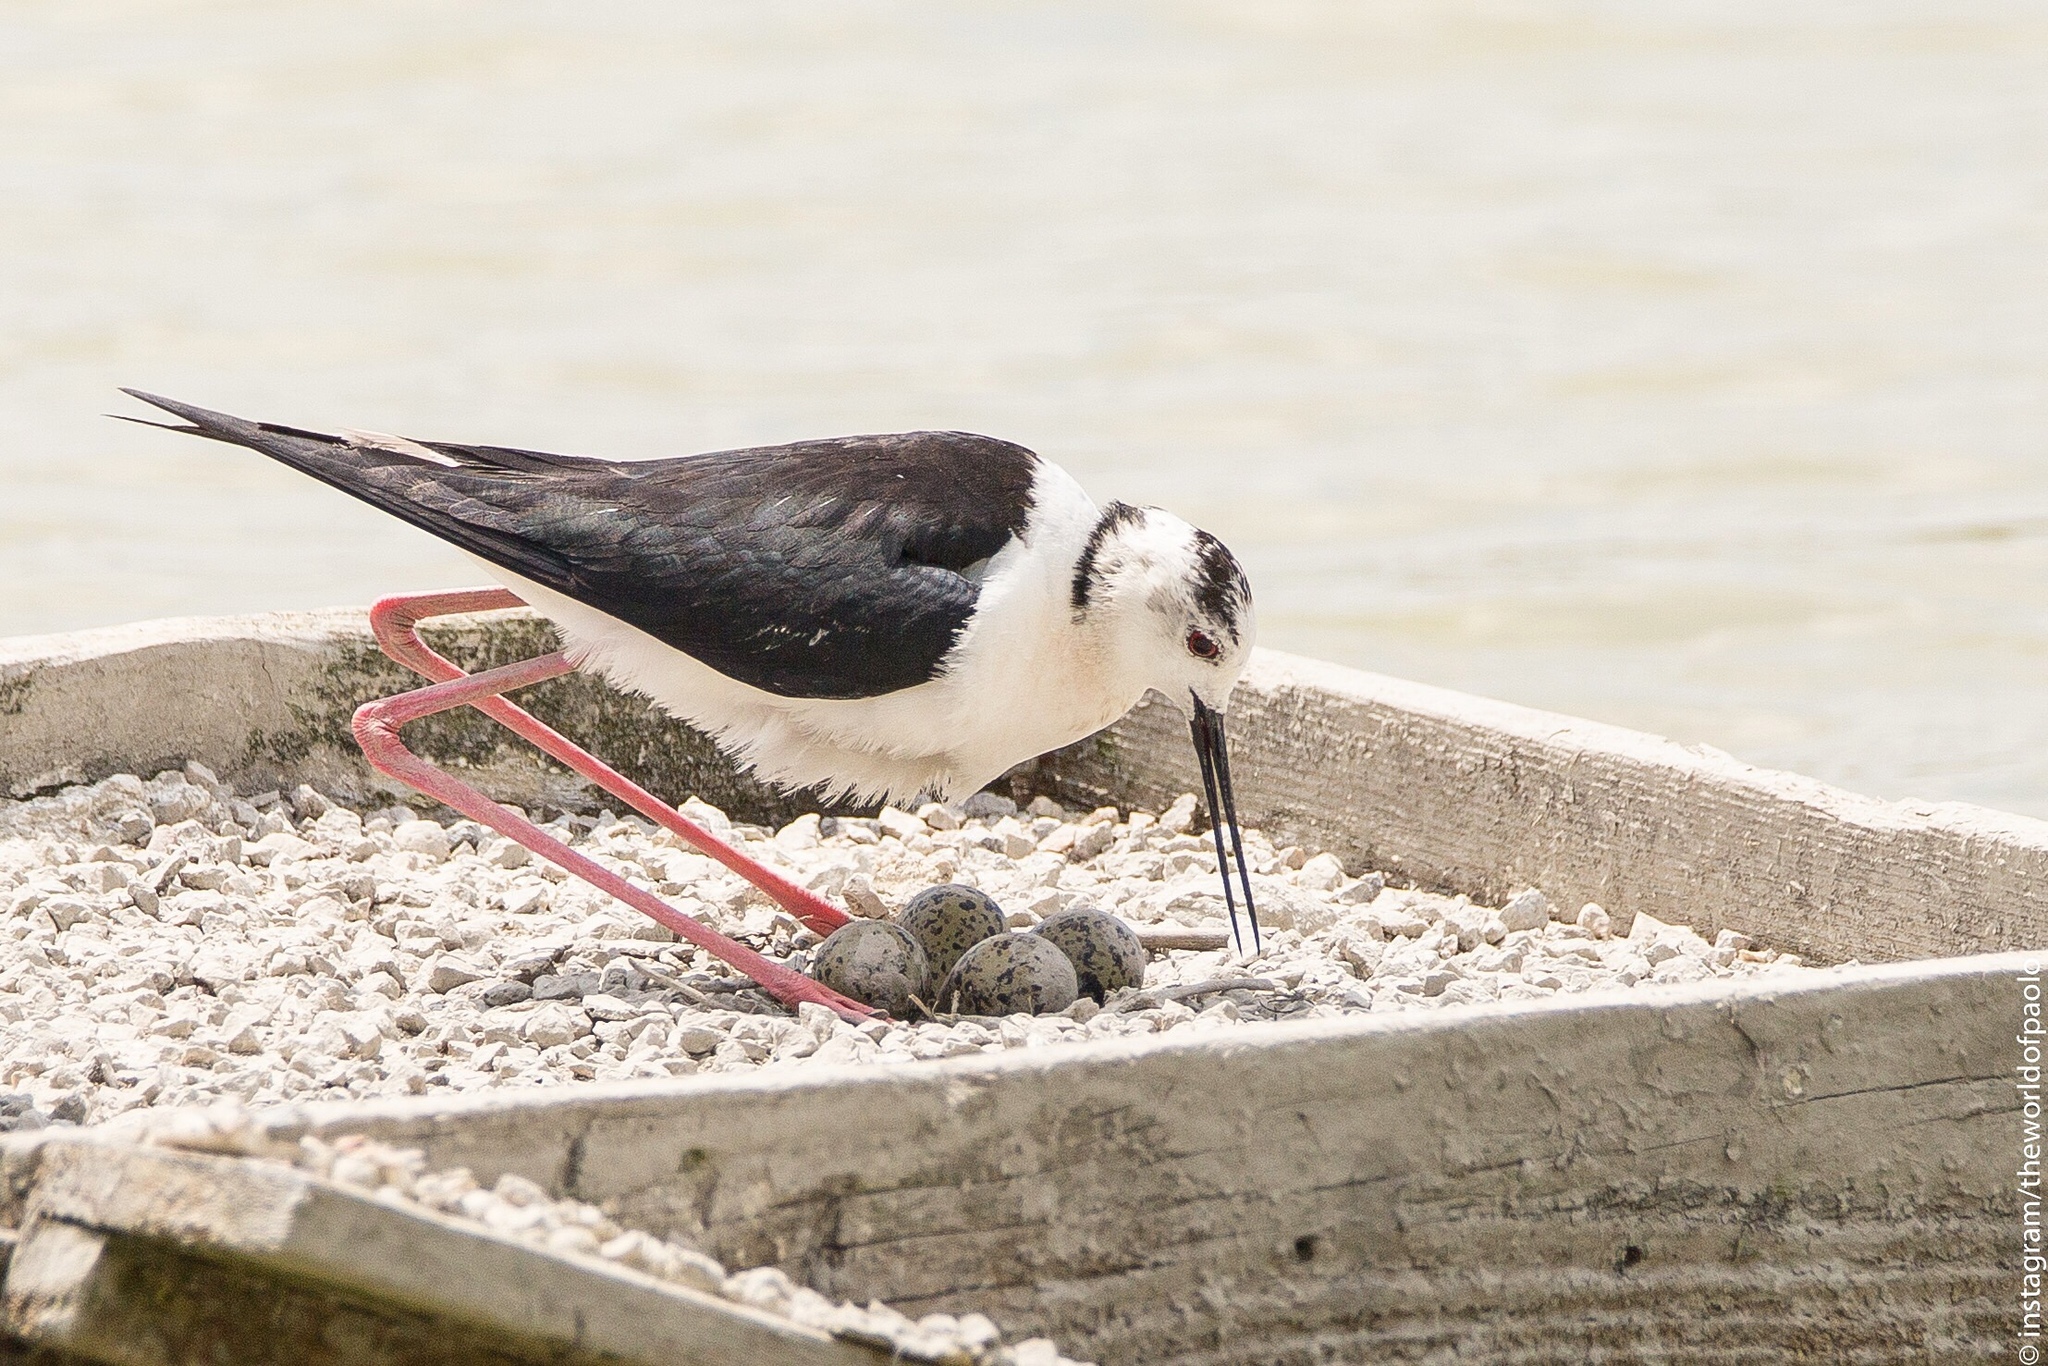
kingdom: Animalia
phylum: Chordata
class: Aves
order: Charadriiformes
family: Recurvirostridae
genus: Himantopus
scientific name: Himantopus himantopus
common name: Black-winged stilt
